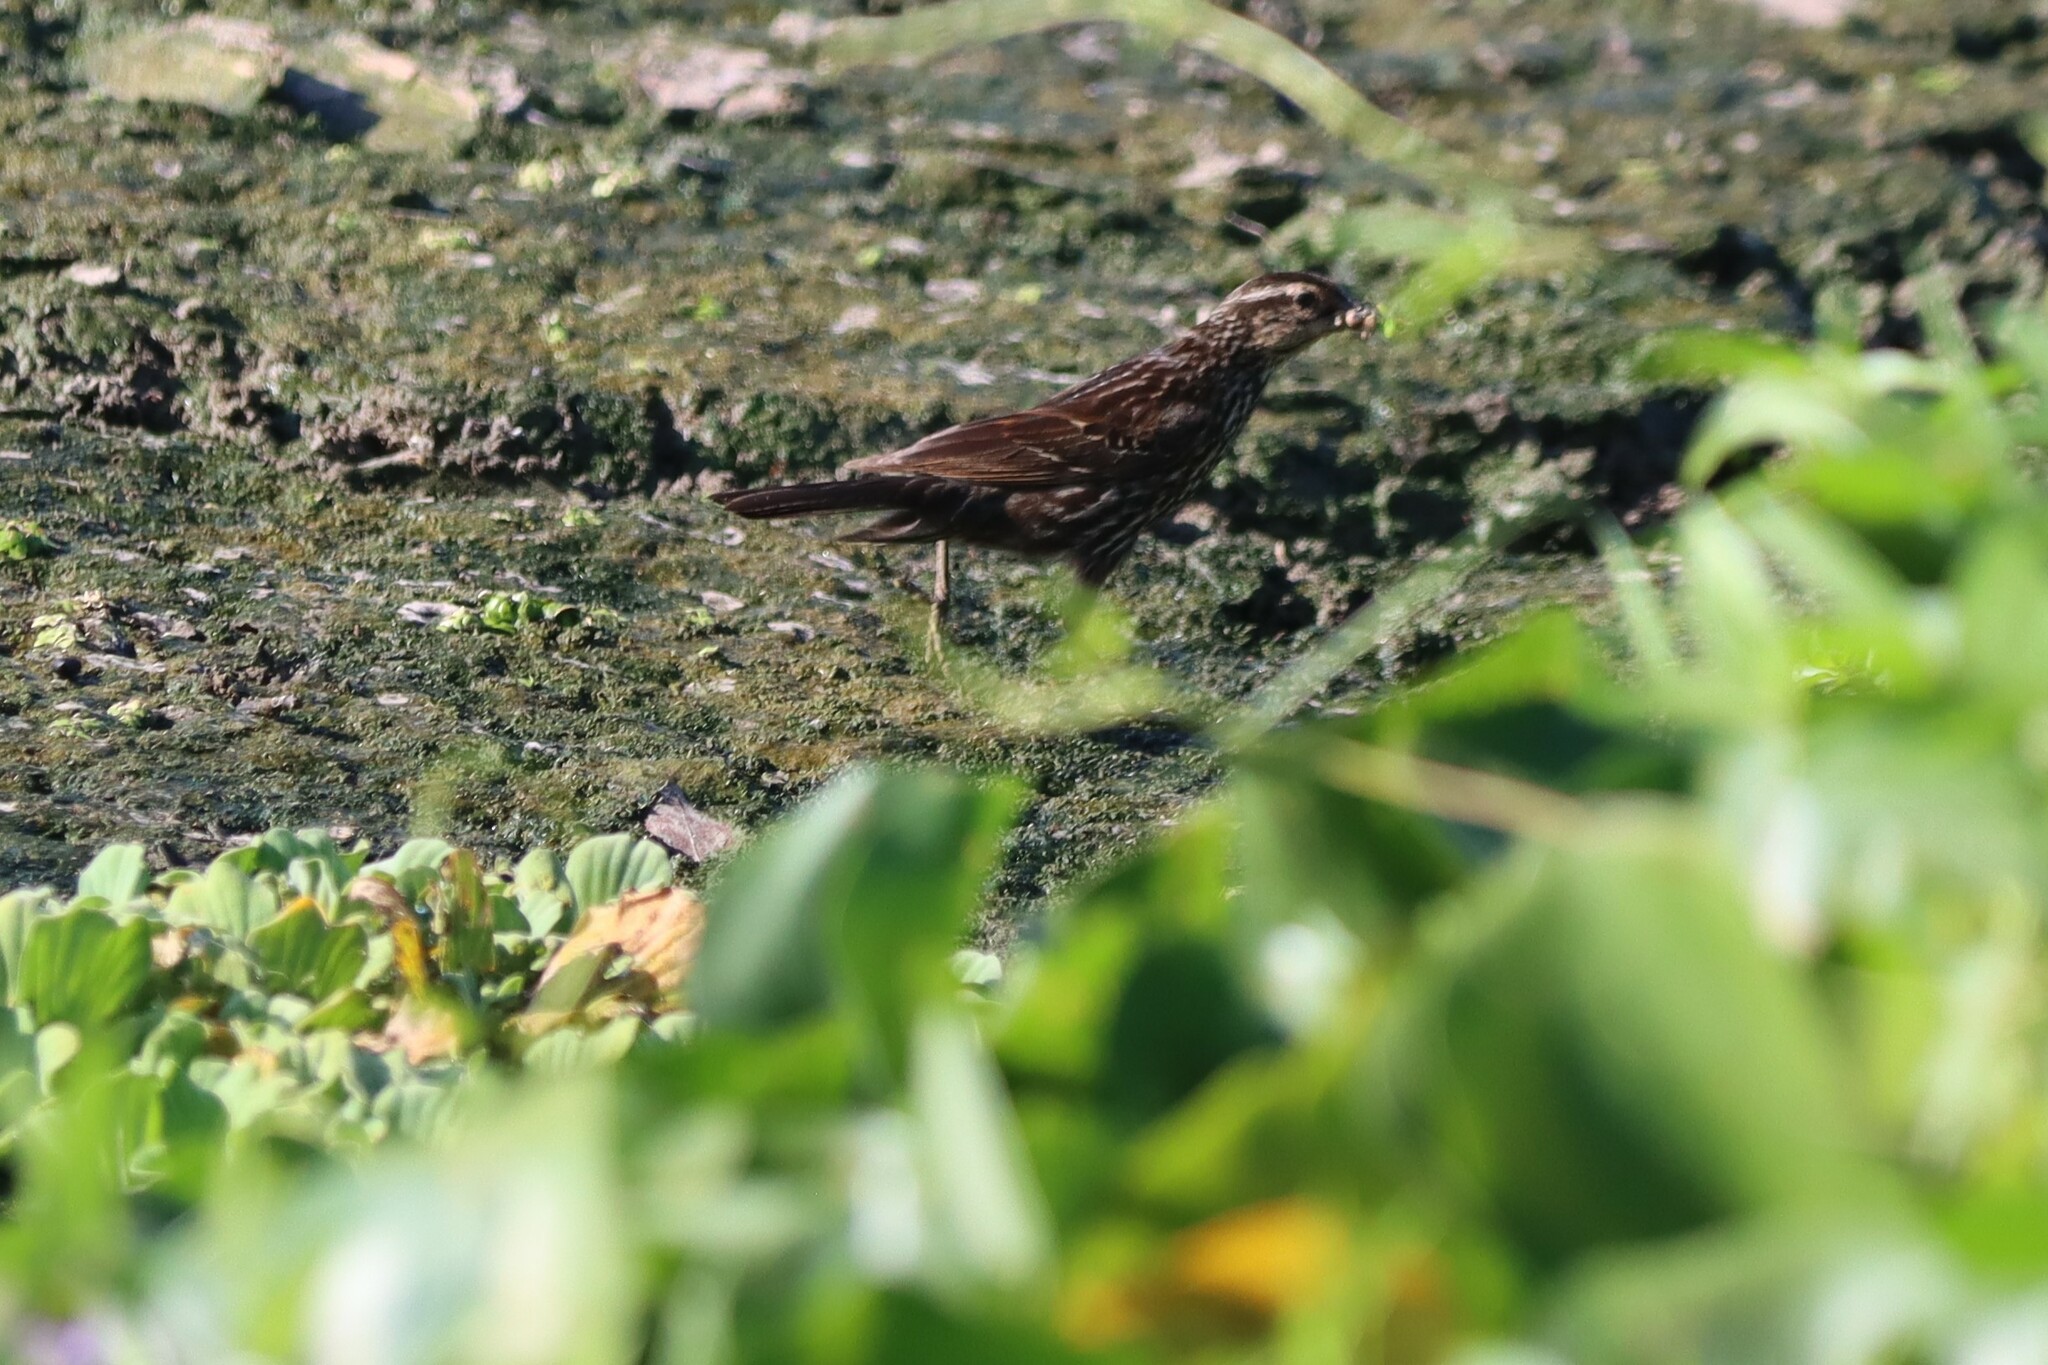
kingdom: Animalia
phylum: Chordata
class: Aves
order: Passeriformes
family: Icteridae
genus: Agelaius
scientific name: Agelaius phoeniceus
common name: Red-winged blackbird
